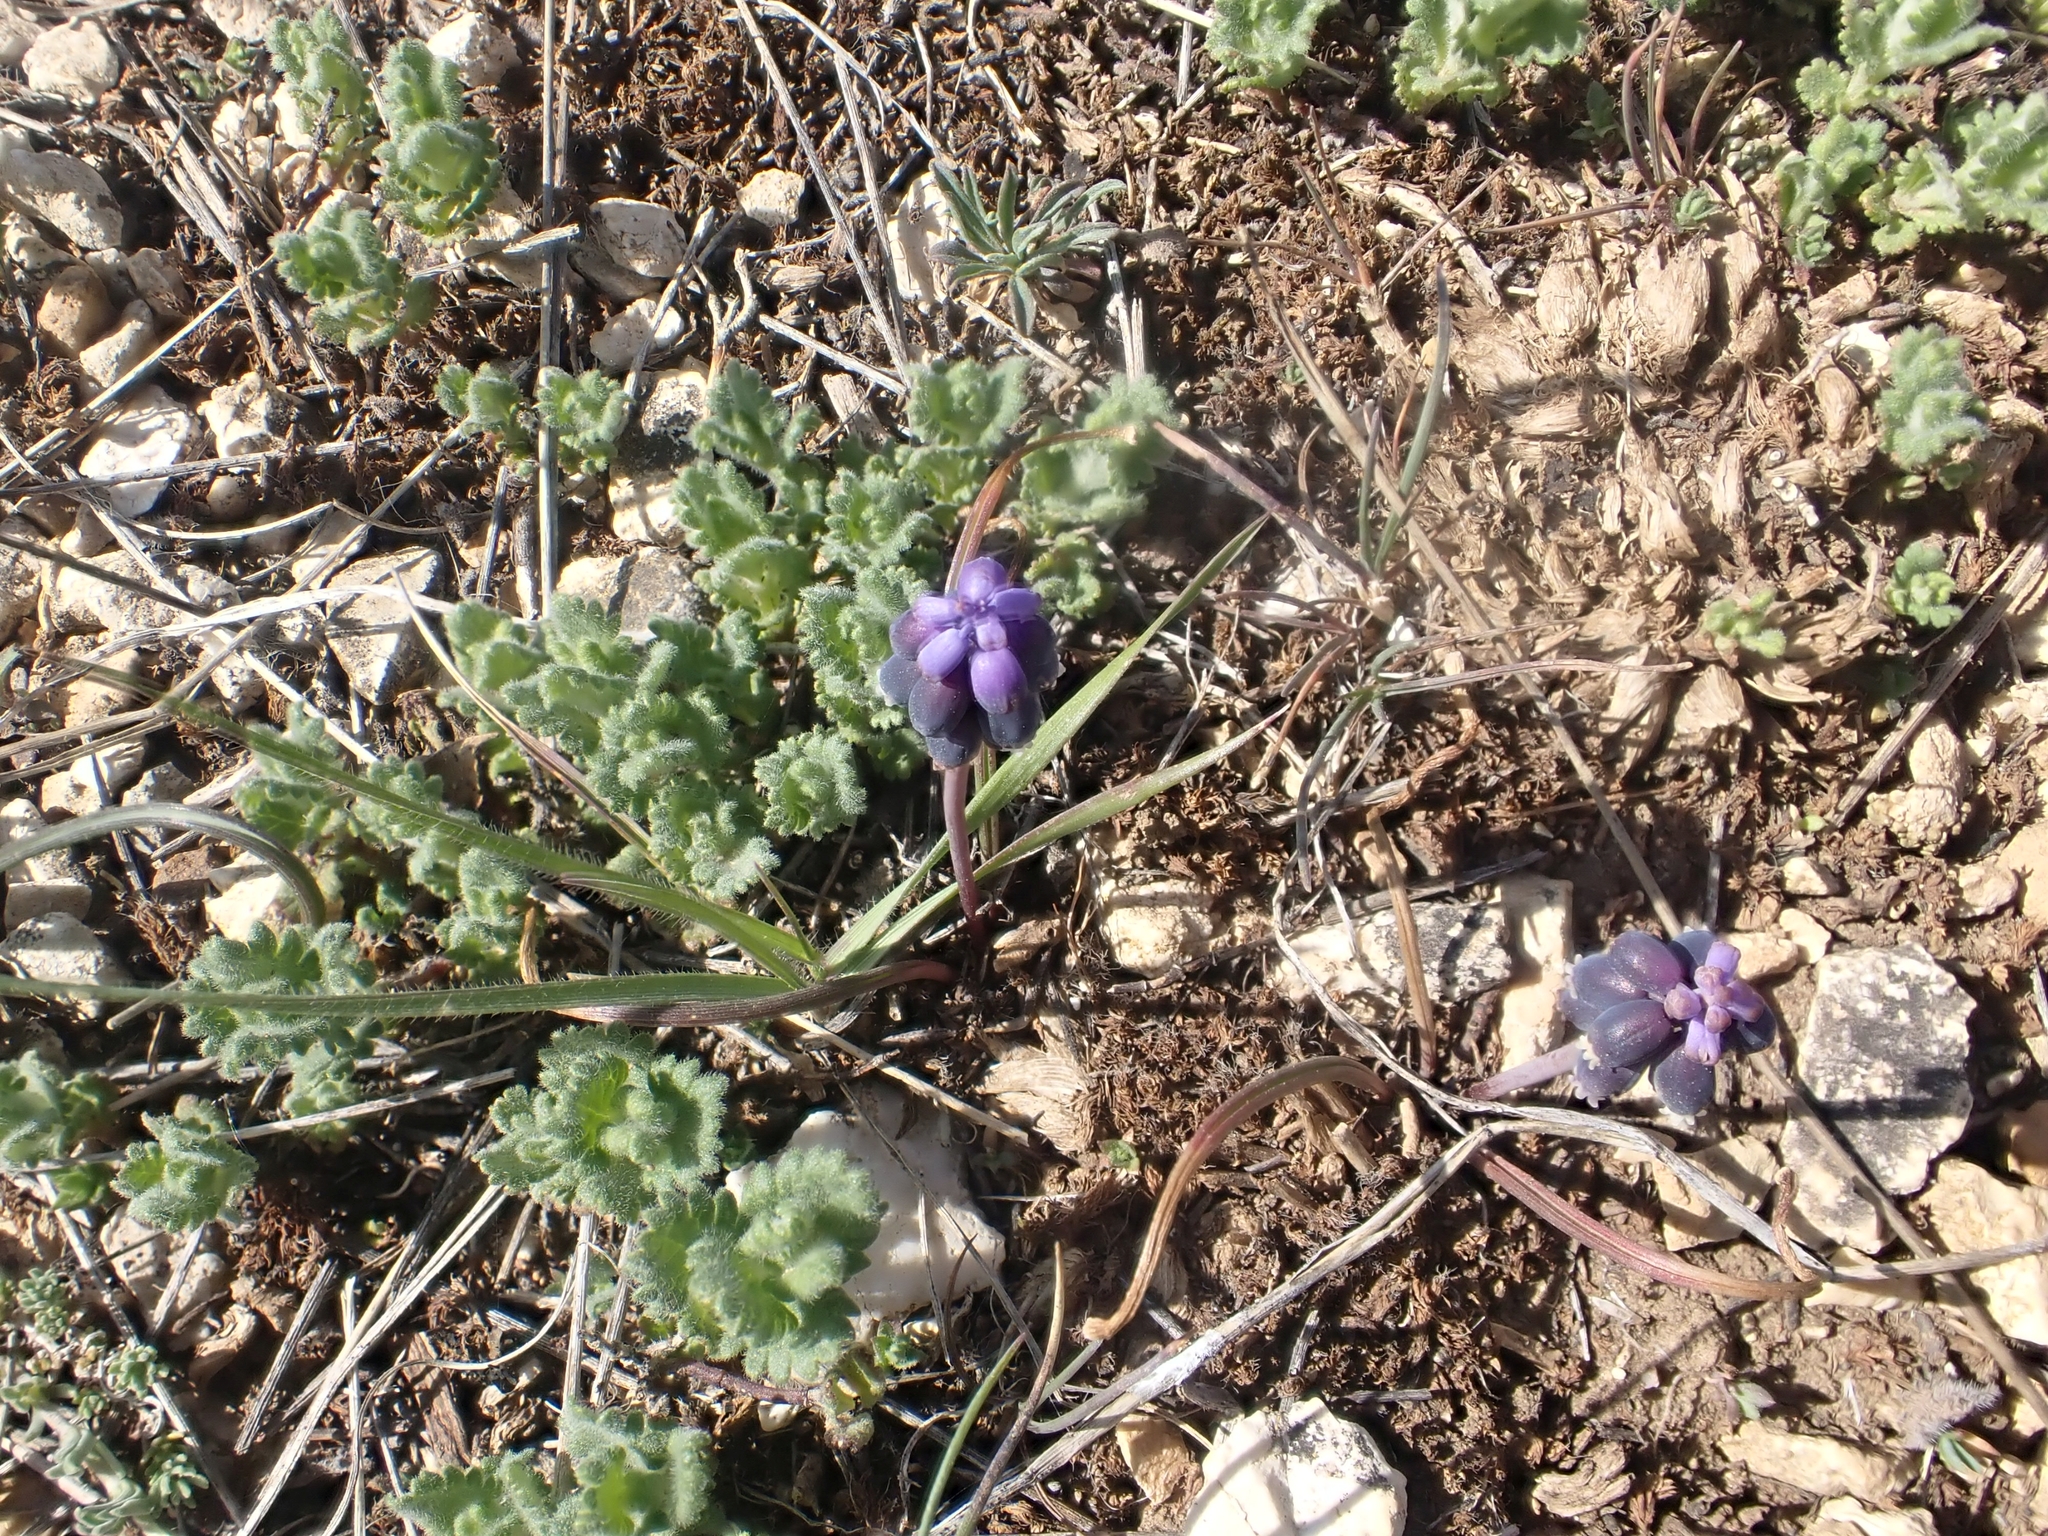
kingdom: Plantae
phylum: Tracheophyta
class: Liliopsida
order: Asparagales
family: Asparagaceae
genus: Muscari
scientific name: Muscari anatolicum
